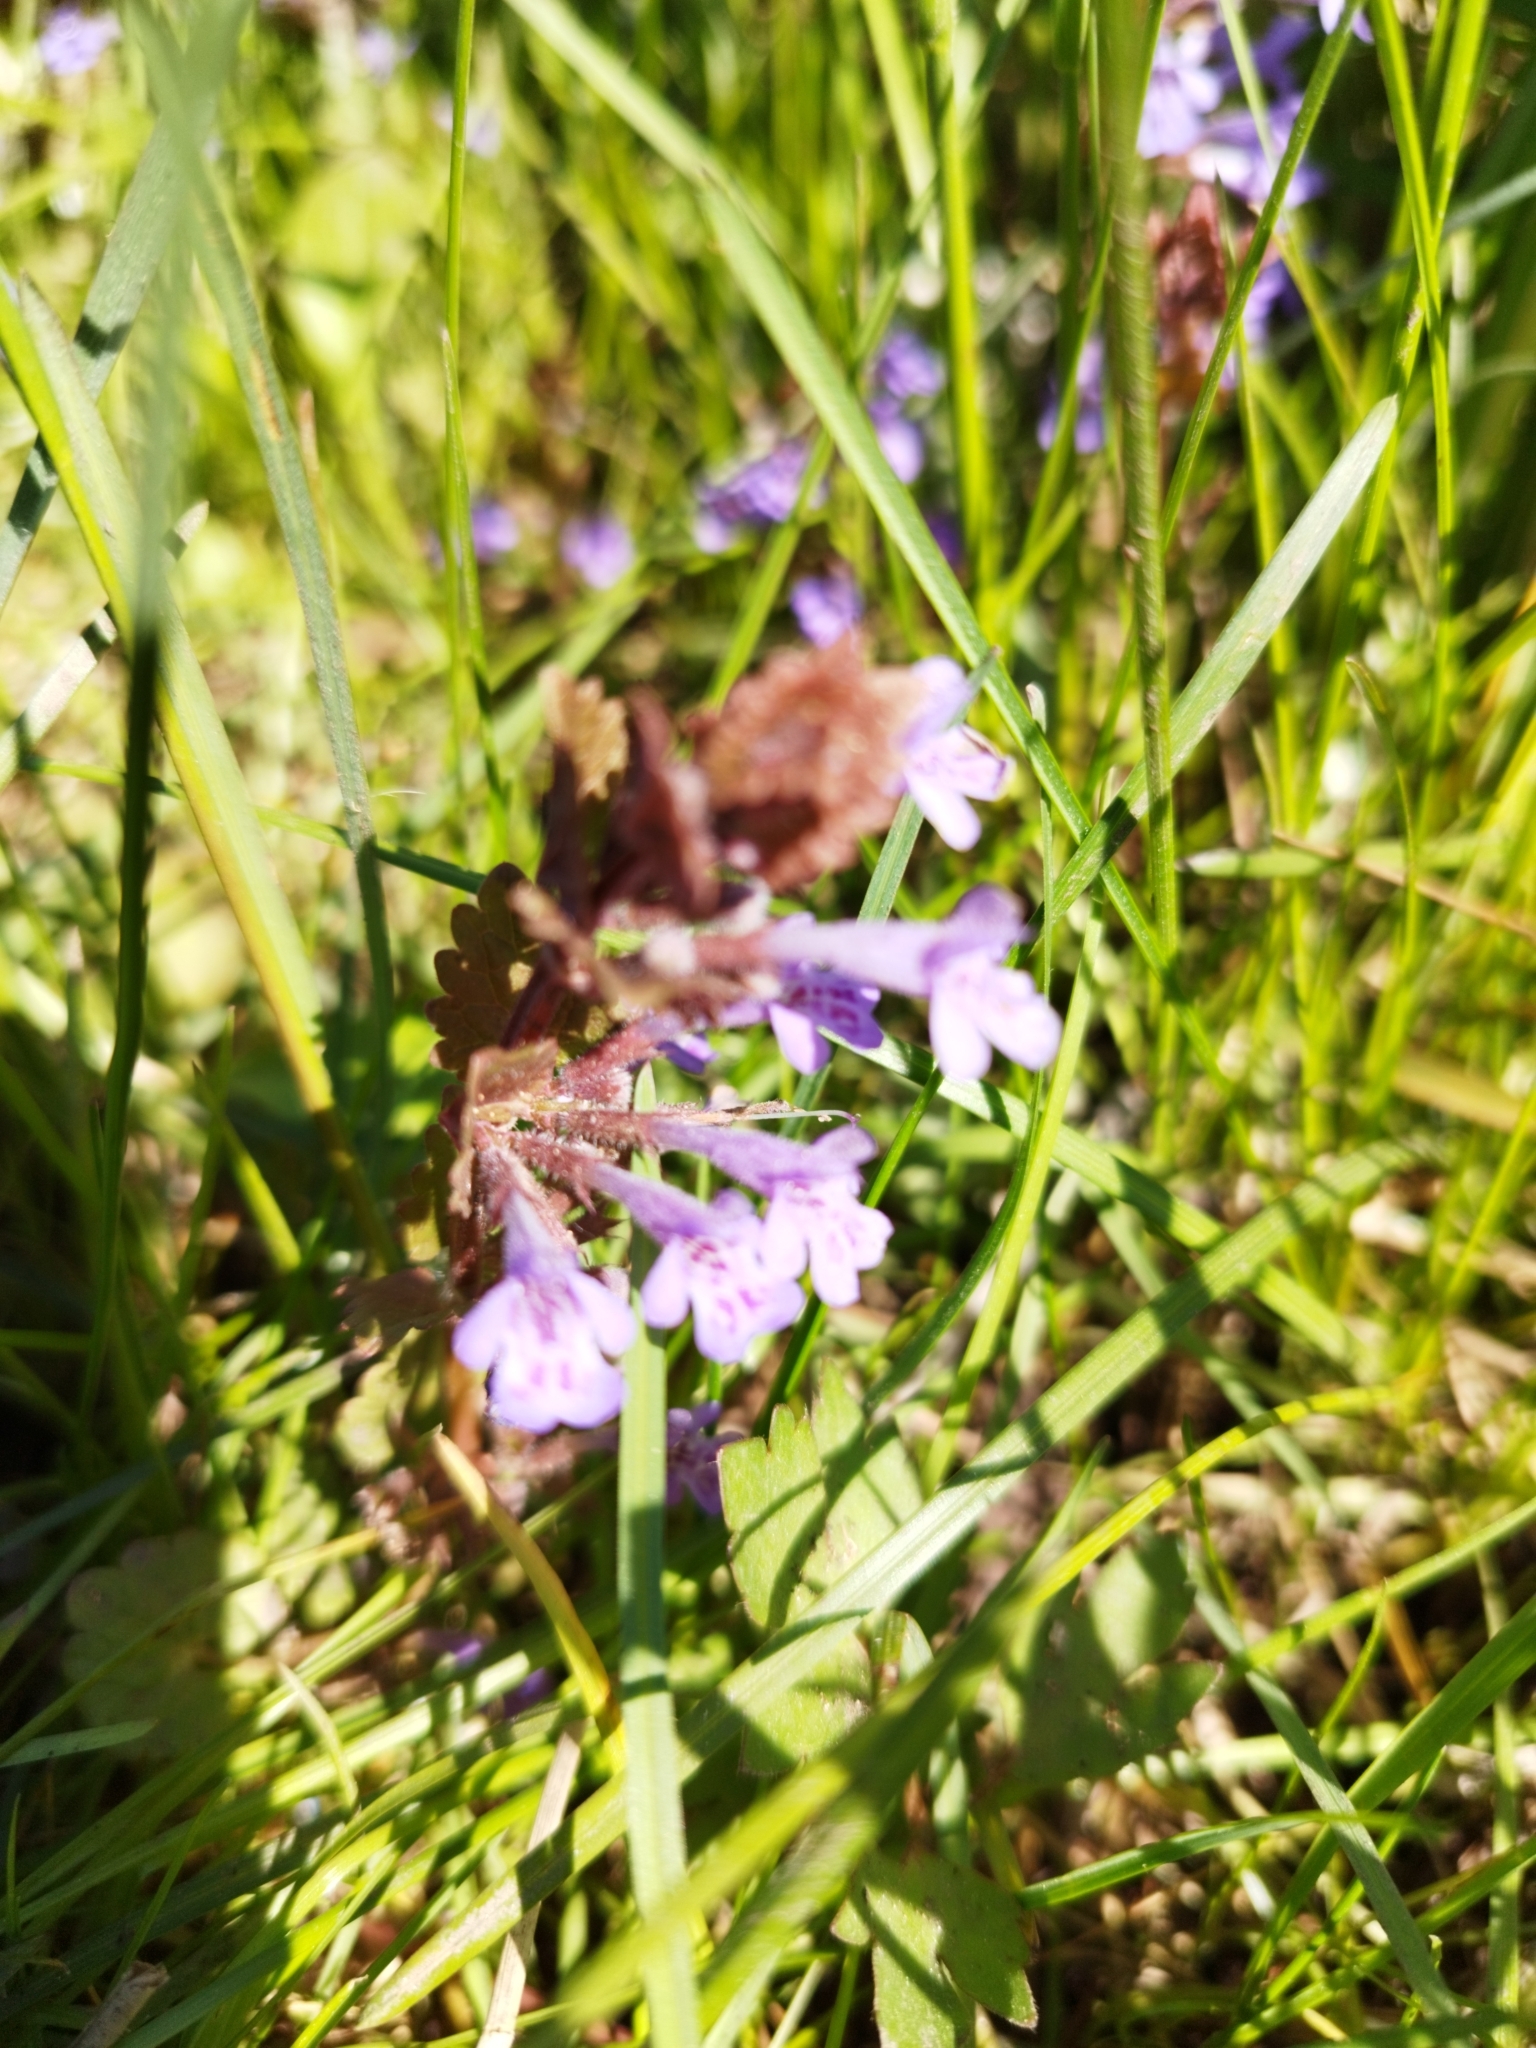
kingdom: Plantae
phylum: Tracheophyta
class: Magnoliopsida
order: Lamiales
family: Lamiaceae
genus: Glechoma
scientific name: Glechoma hederacea
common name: Ground ivy
